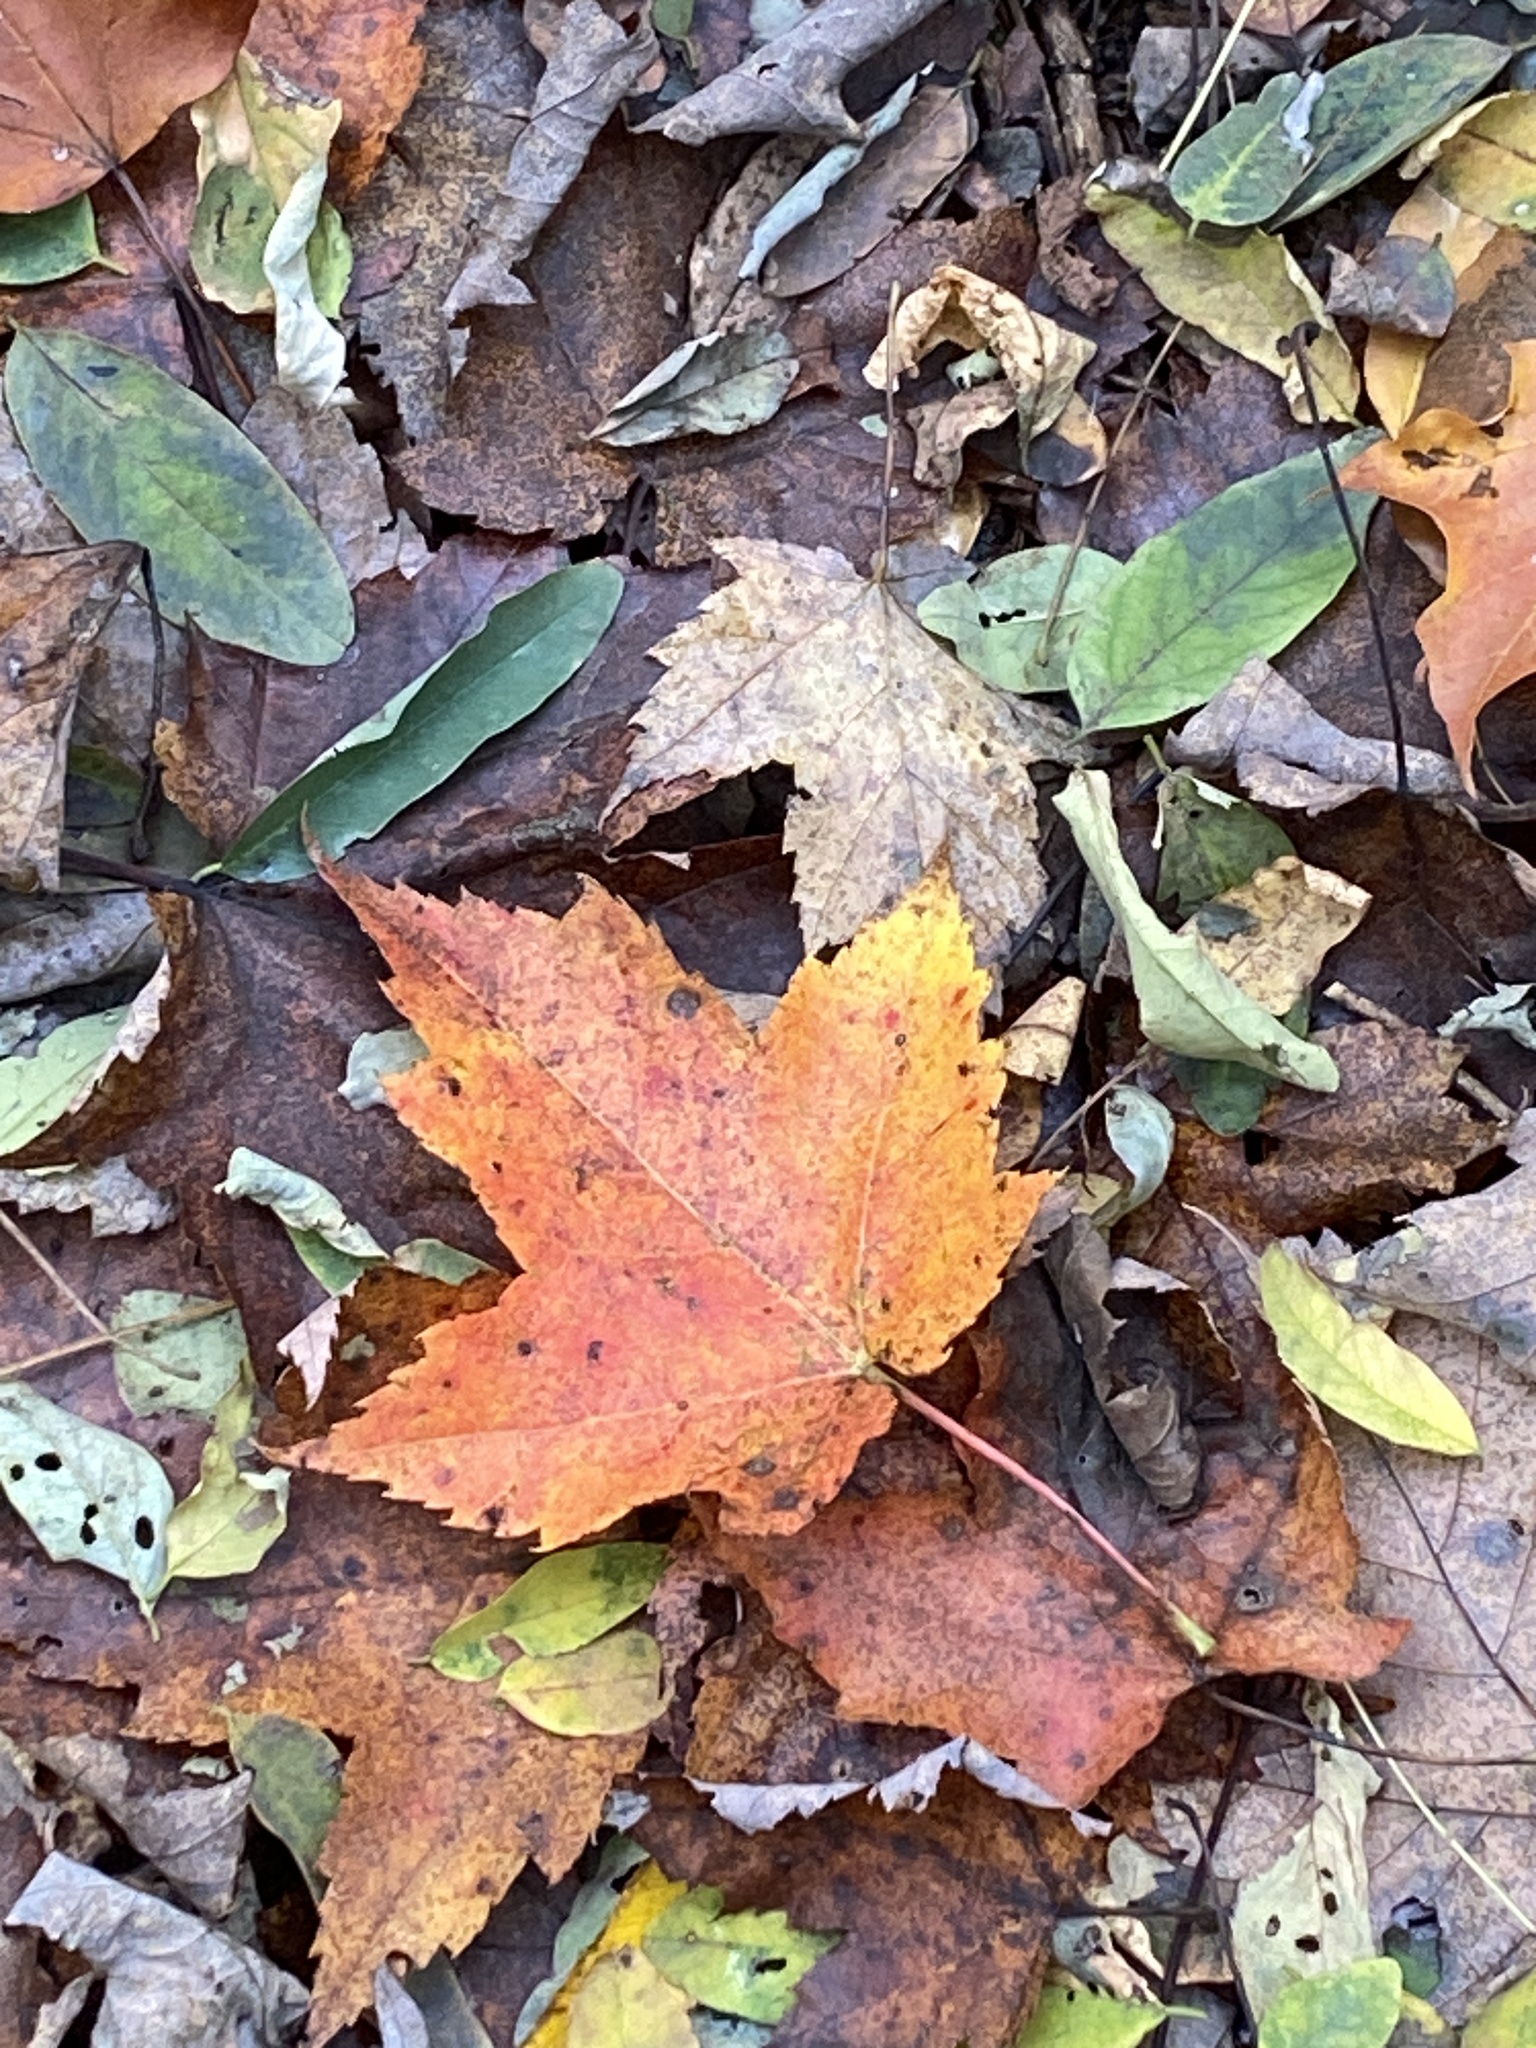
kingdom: Plantae
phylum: Tracheophyta
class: Magnoliopsida
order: Sapindales
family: Sapindaceae
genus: Acer
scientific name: Acer rubrum
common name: Red maple
